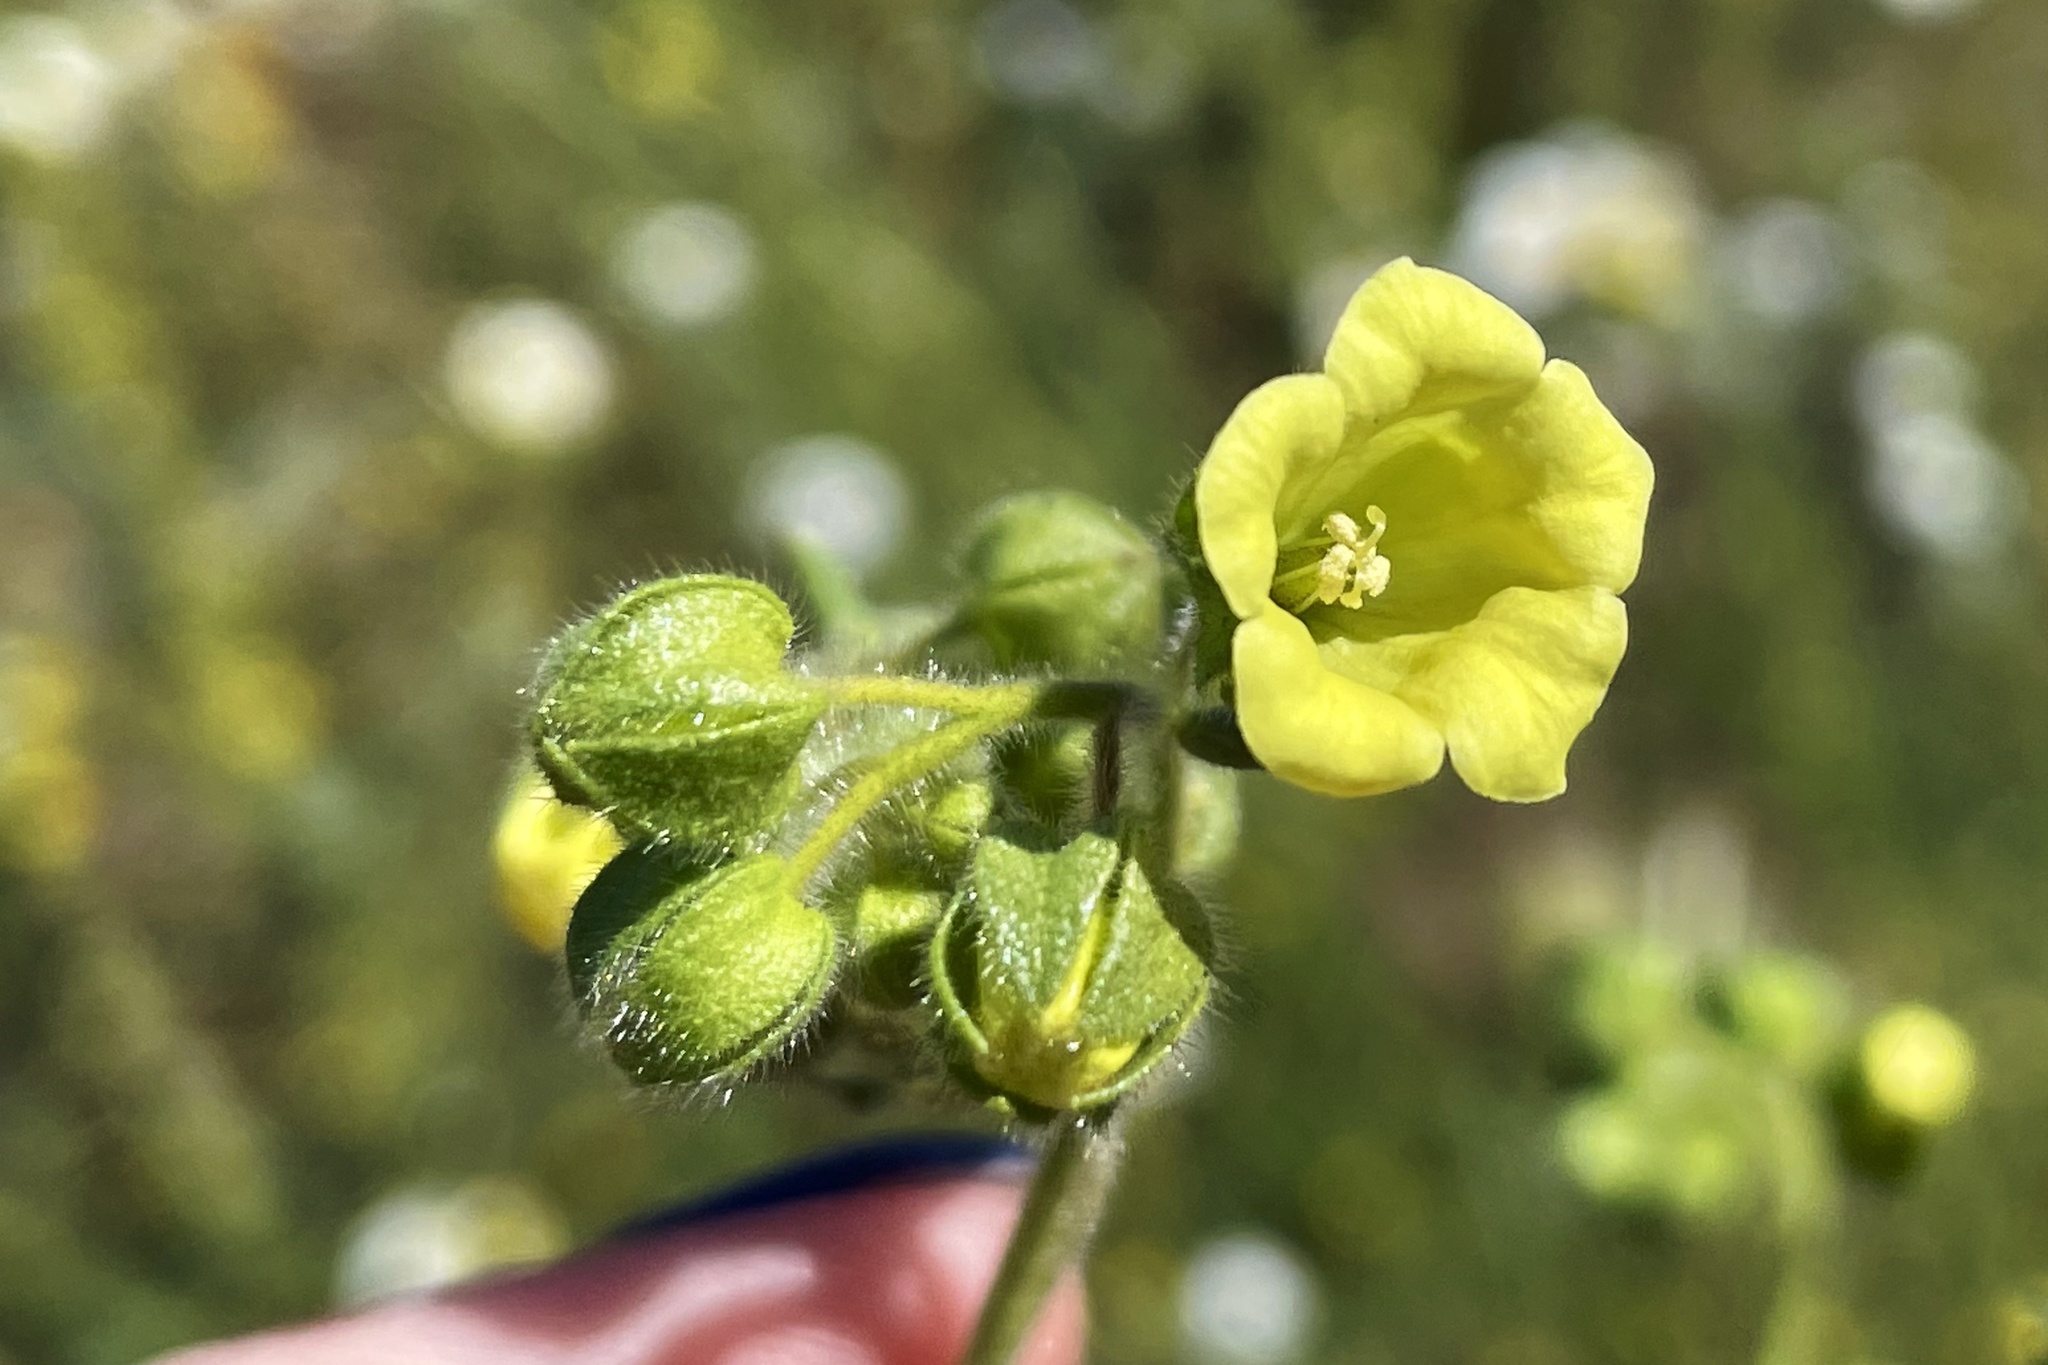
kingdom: Plantae
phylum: Tracheophyta
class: Magnoliopsida
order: Boraginales
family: Hydrophyllaceae
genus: Emmenanthe
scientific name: Emmenanthe penduliflora
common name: Whispering-bells
